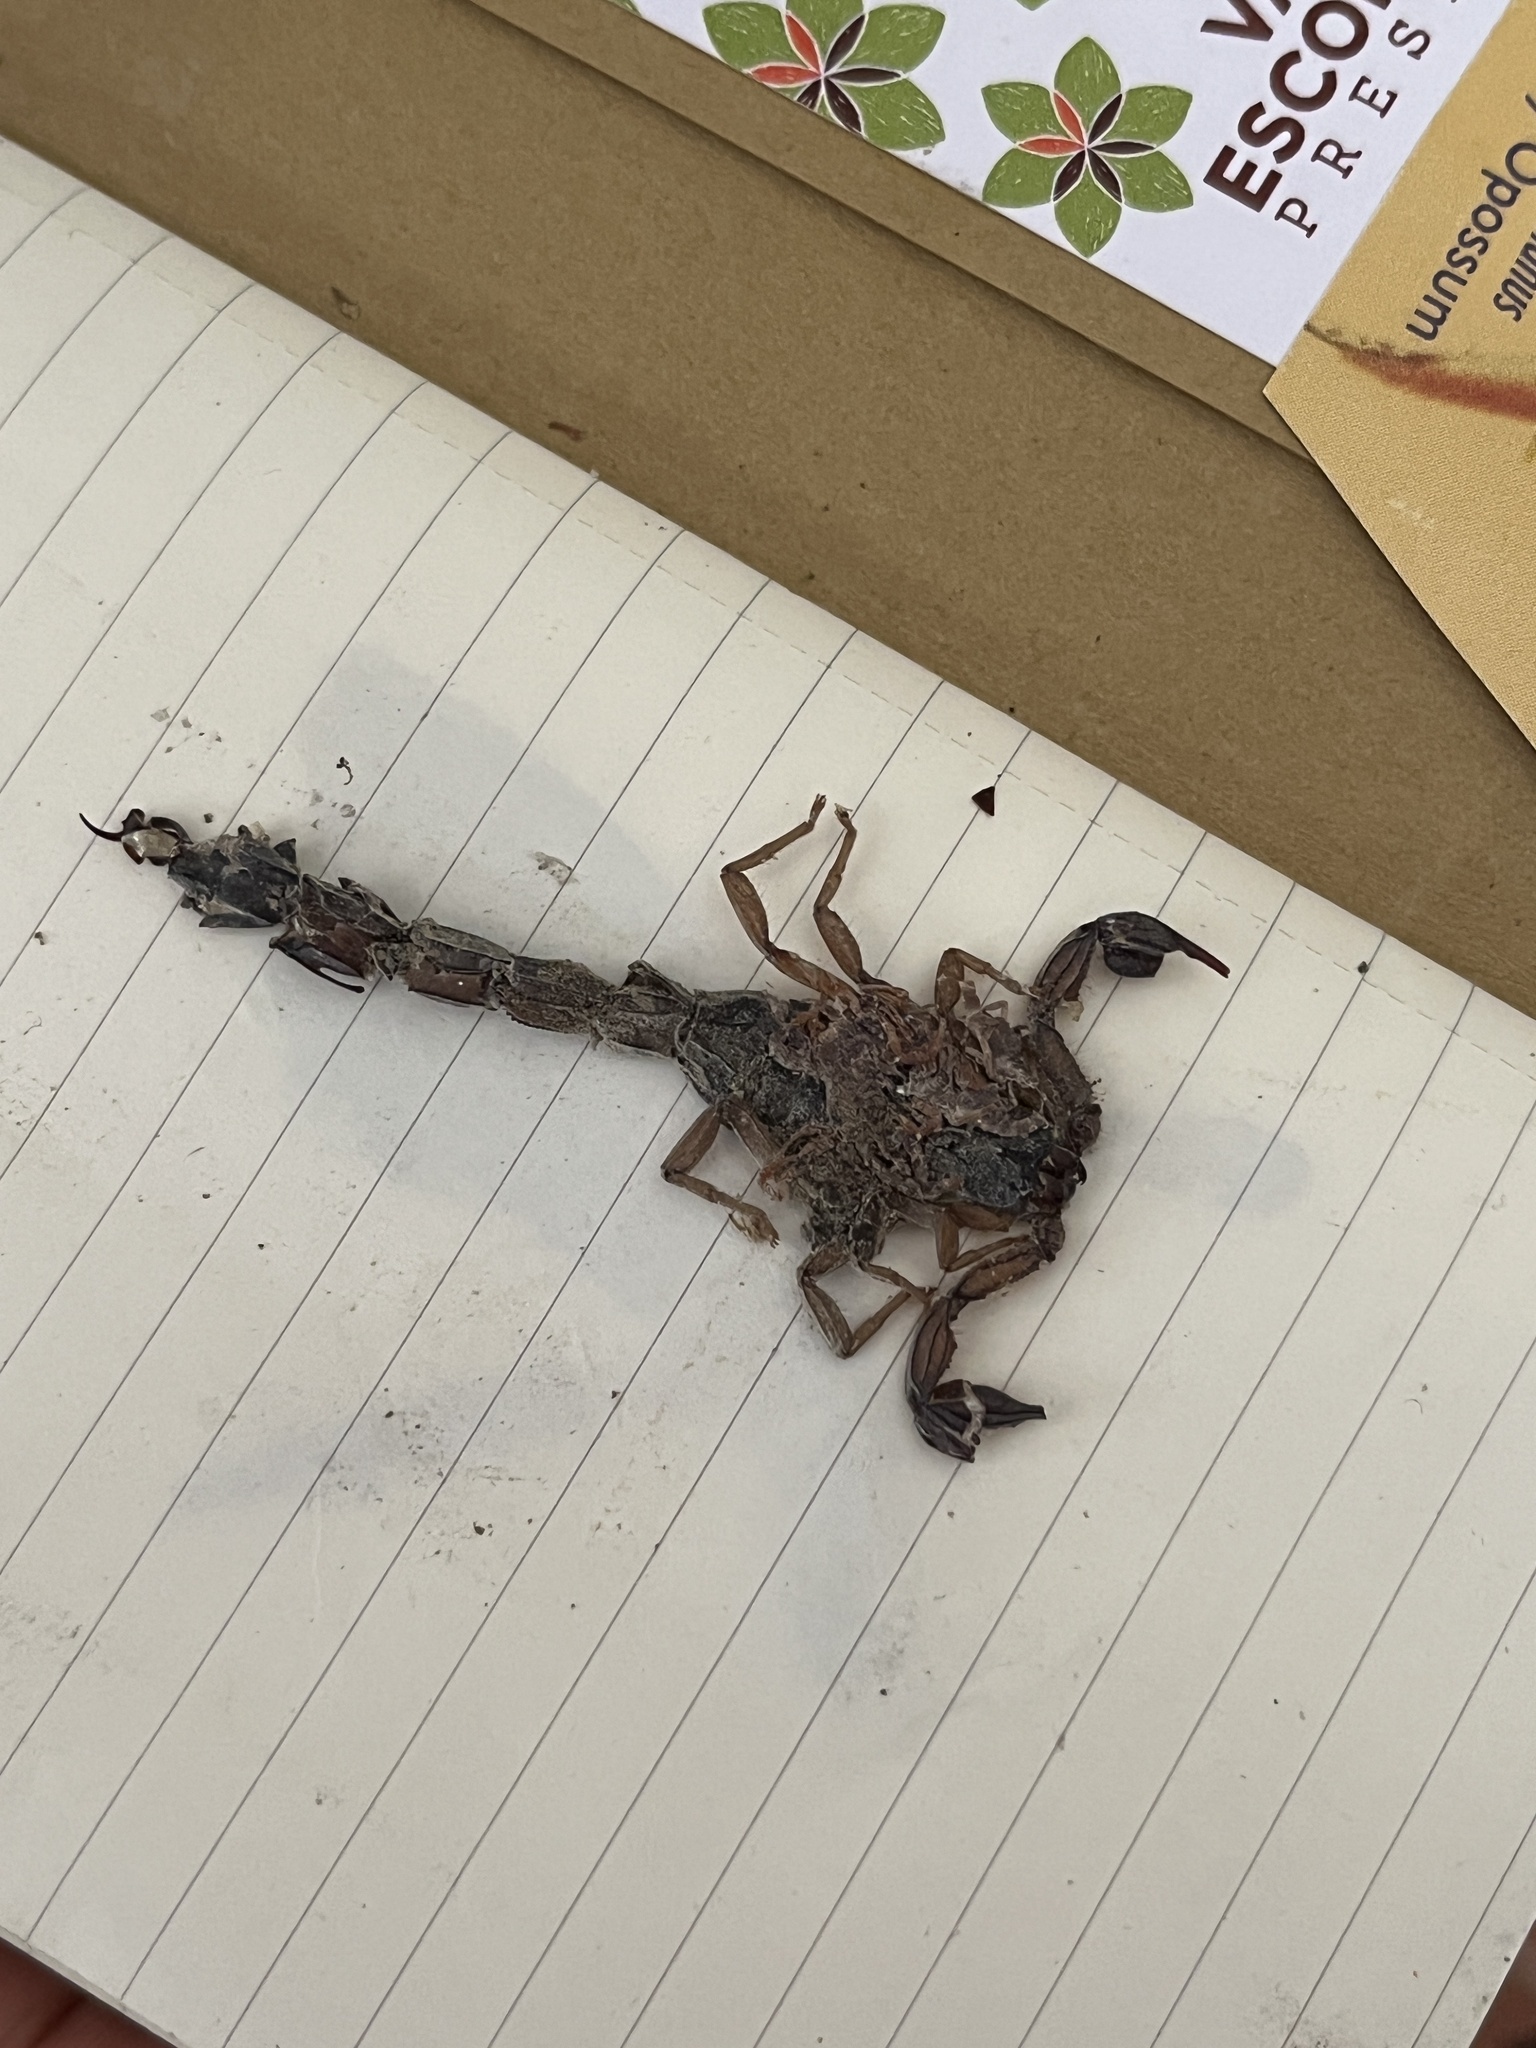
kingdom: Animalia
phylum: Arthropoda
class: Arachnida
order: Scorpiones
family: Buthidae
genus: Centruroides
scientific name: Centruroides edwardsii
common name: Scorpions
